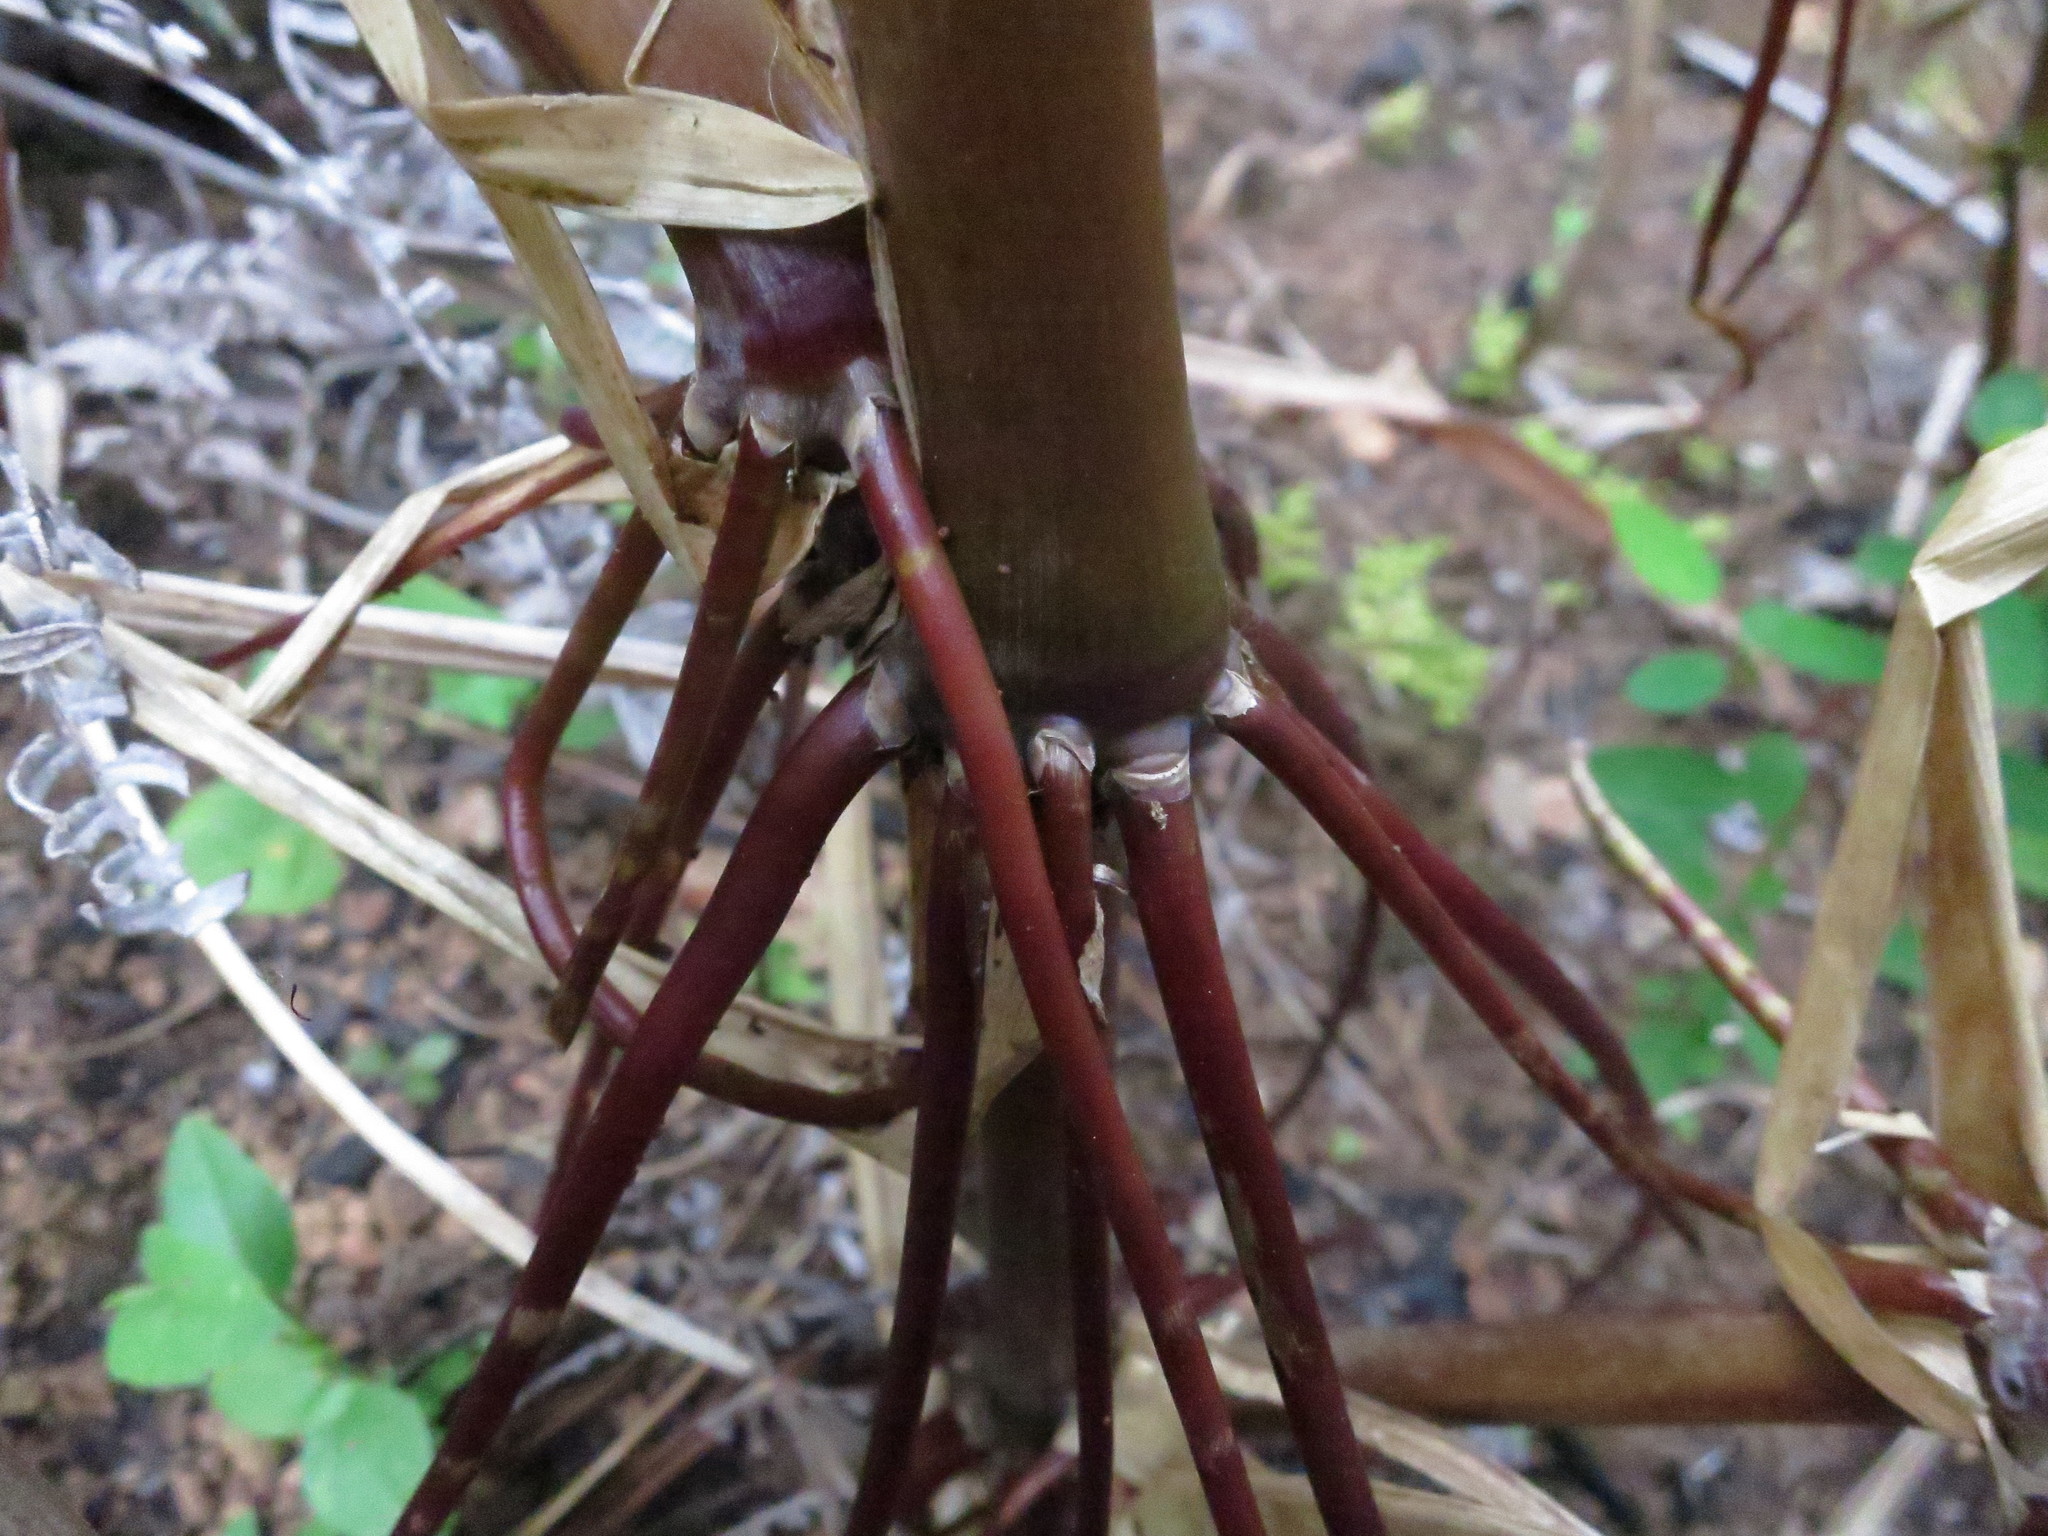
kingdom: Plantae
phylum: Tracheophyta
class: Liliopsida
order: Poales
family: Poaceae
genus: Hyparrhenia
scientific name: Hyparrhenia schimperi
